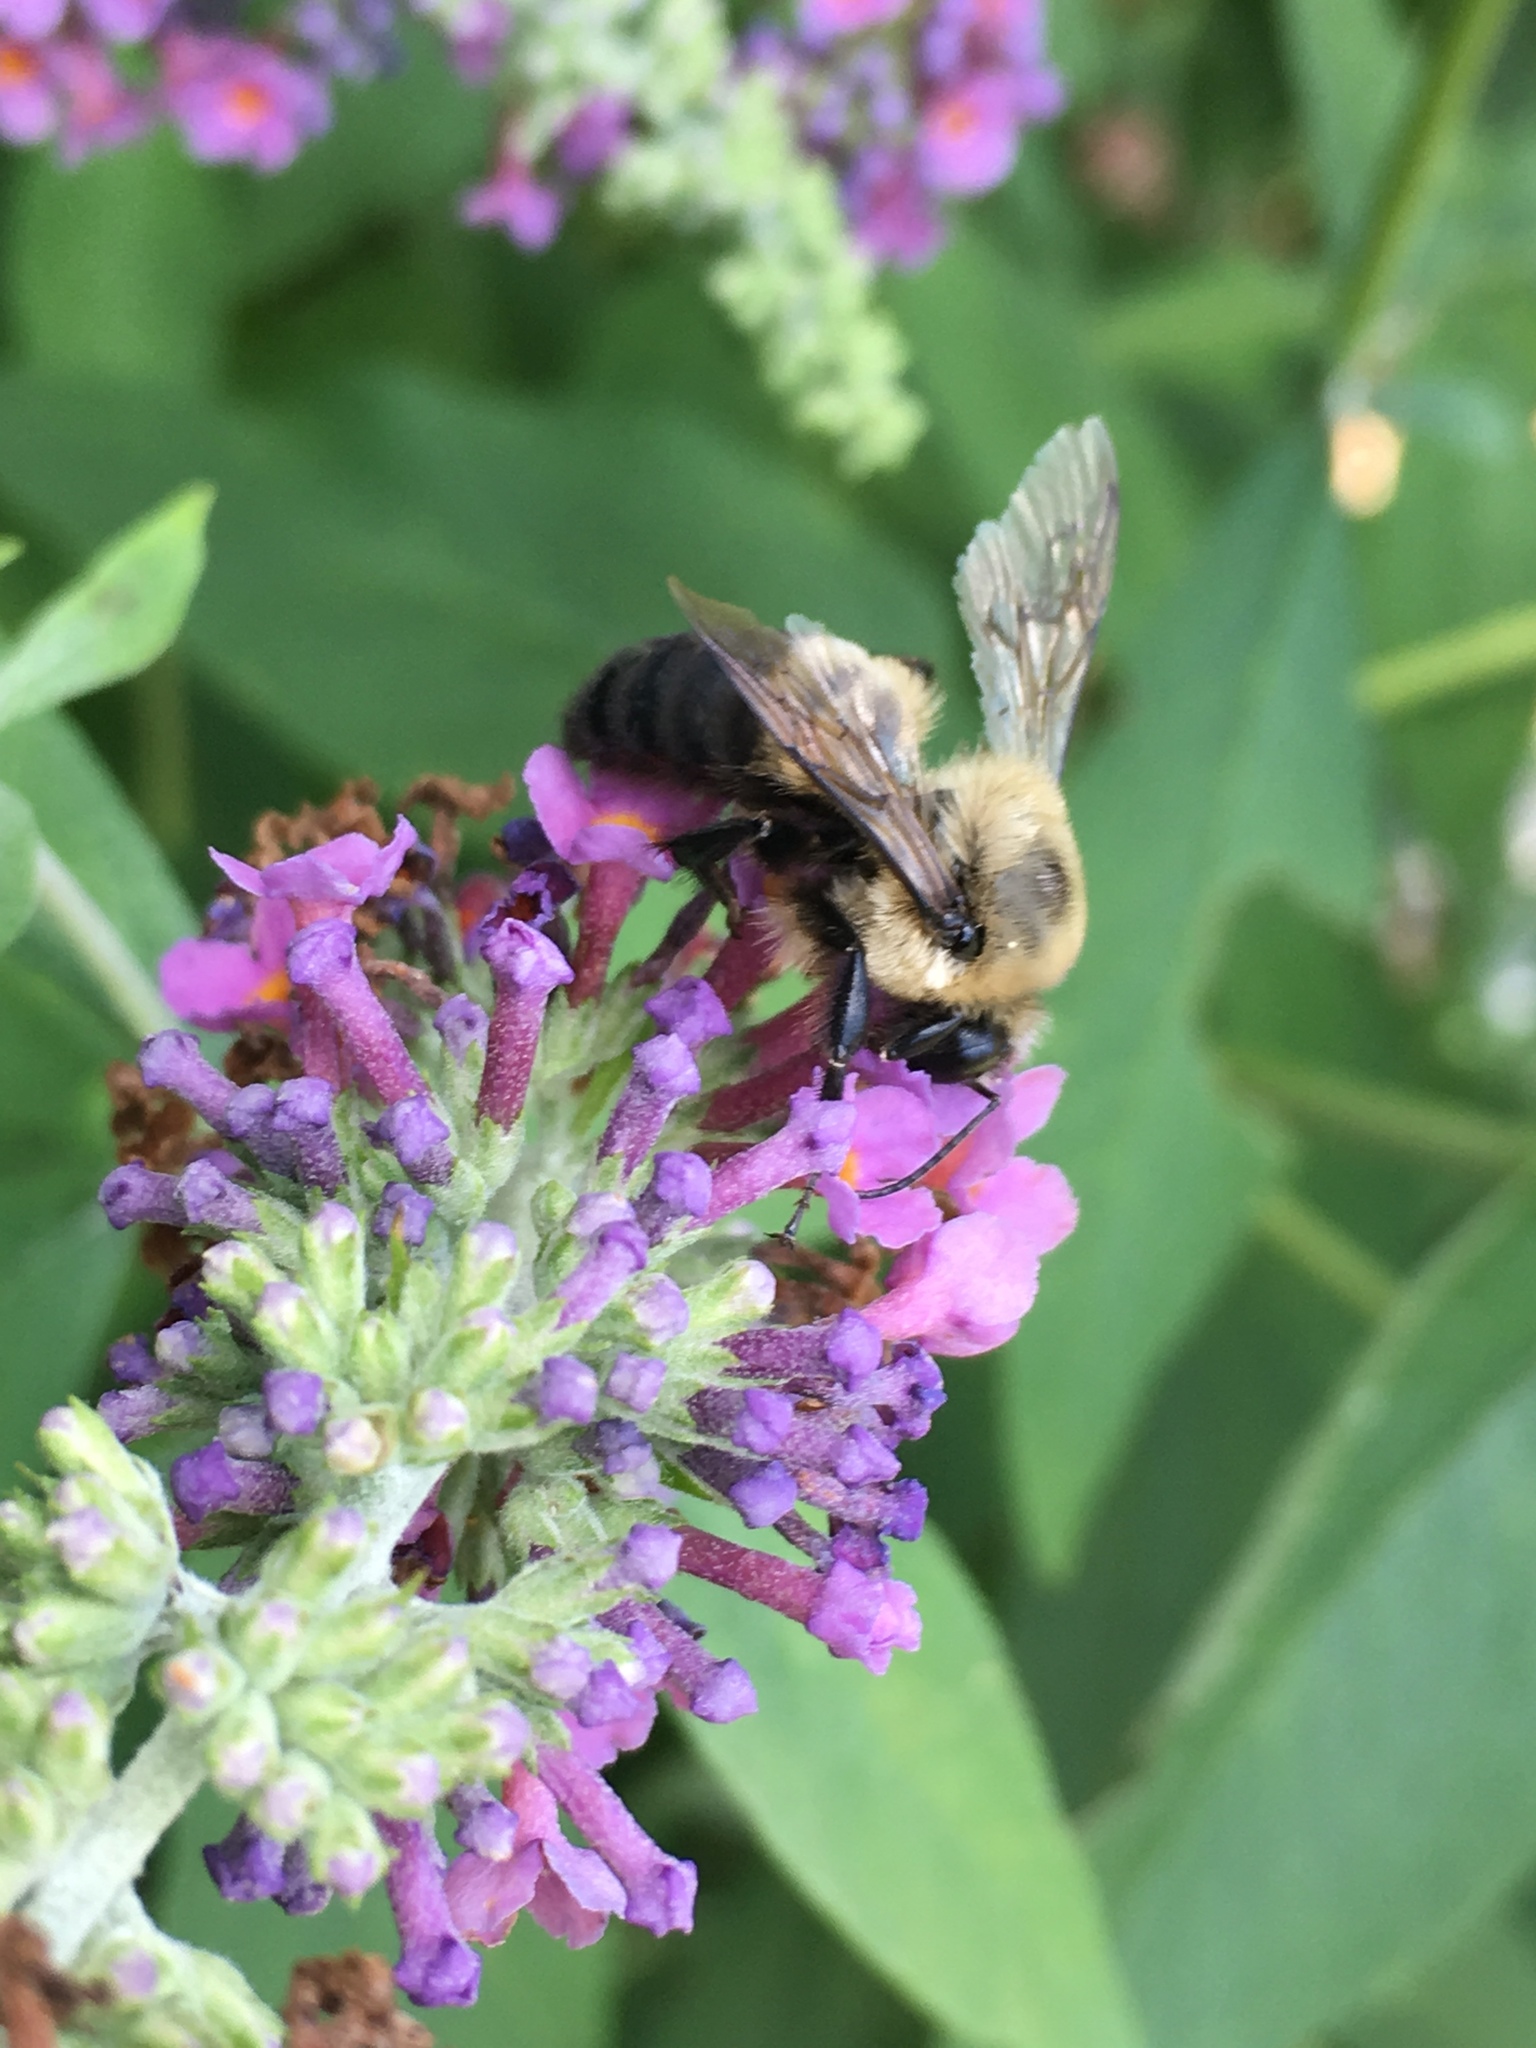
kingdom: Animalia
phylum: Arthropoda
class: Insecta
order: Hymenoptera
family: Apidae
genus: Bombus
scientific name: Bombus griseocollis
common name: Brown-belted bumble bee
